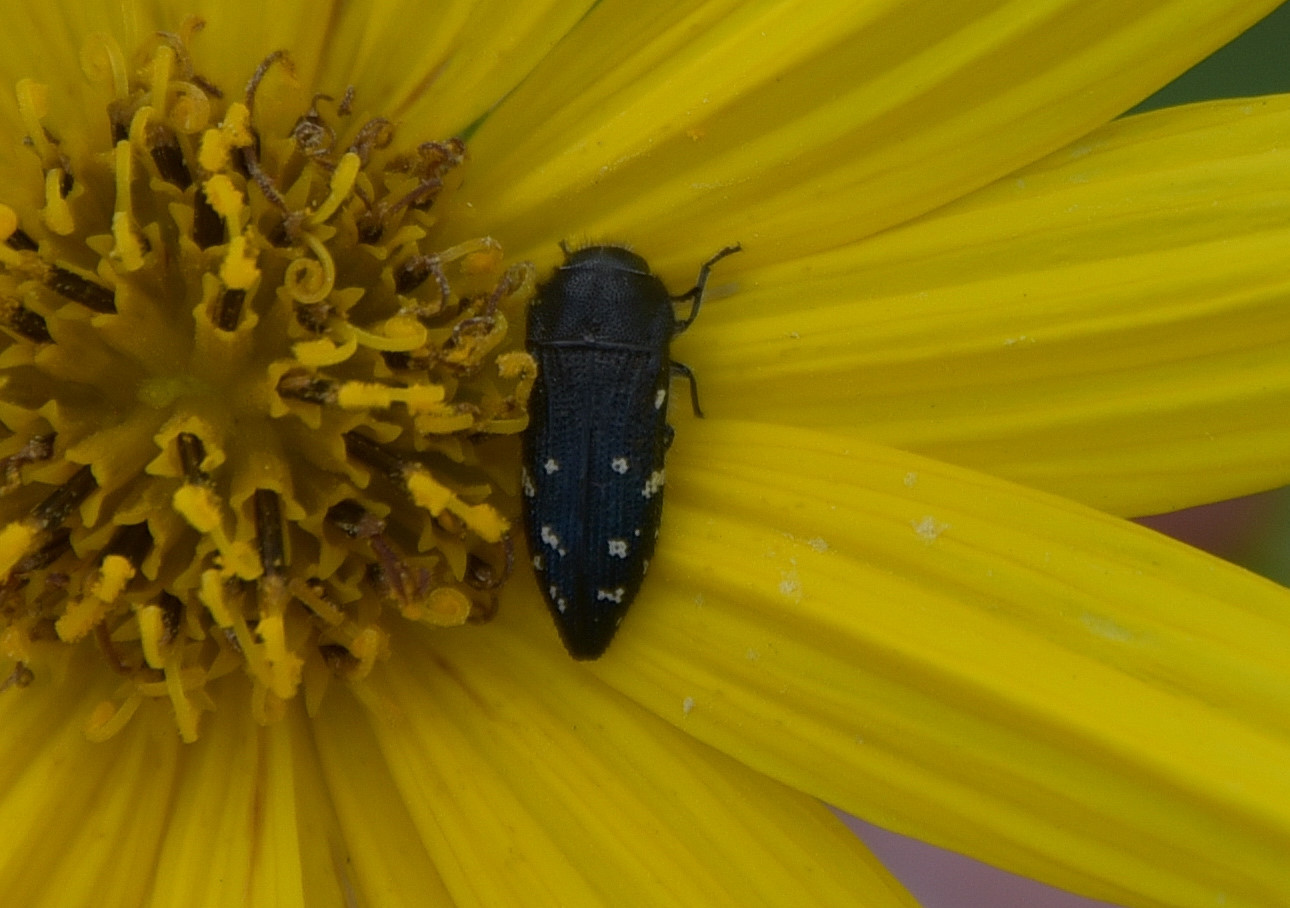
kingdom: Animalia
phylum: Arthropoda
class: Insecta
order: Coleoptera
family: Buprestidae
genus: Acmaeodera
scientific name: Acmaeodera ornatoides
